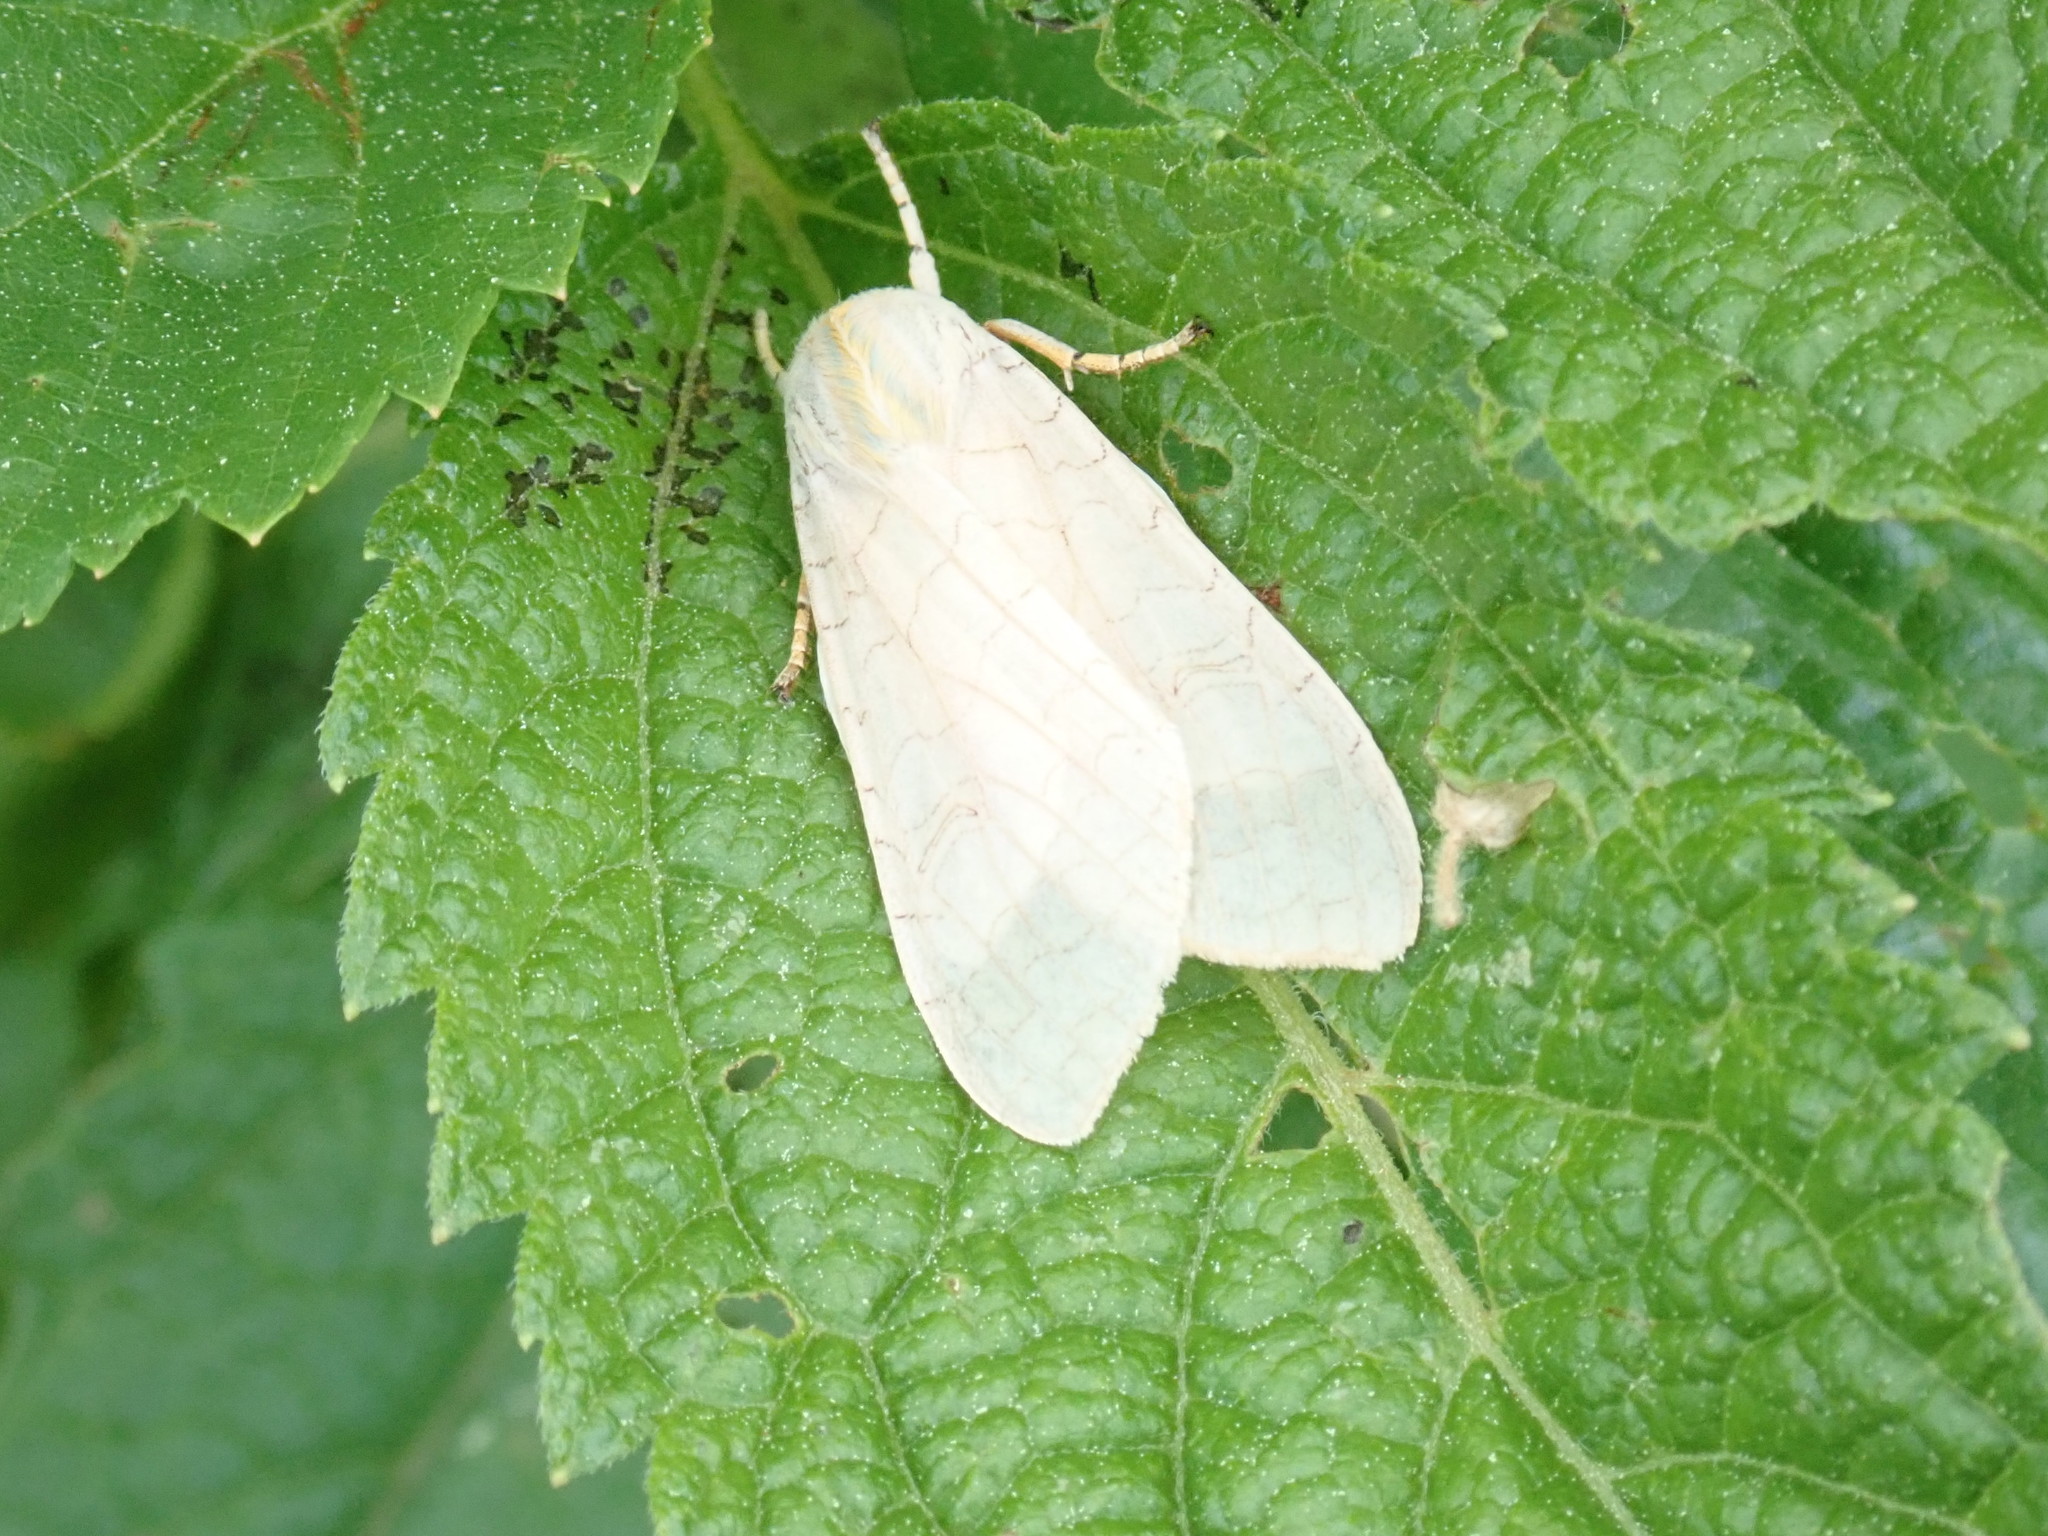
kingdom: Animalia
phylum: Arthropoda
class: Insecta
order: Lepidoptera
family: Erebidae
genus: Halysidota
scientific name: Halysidota
